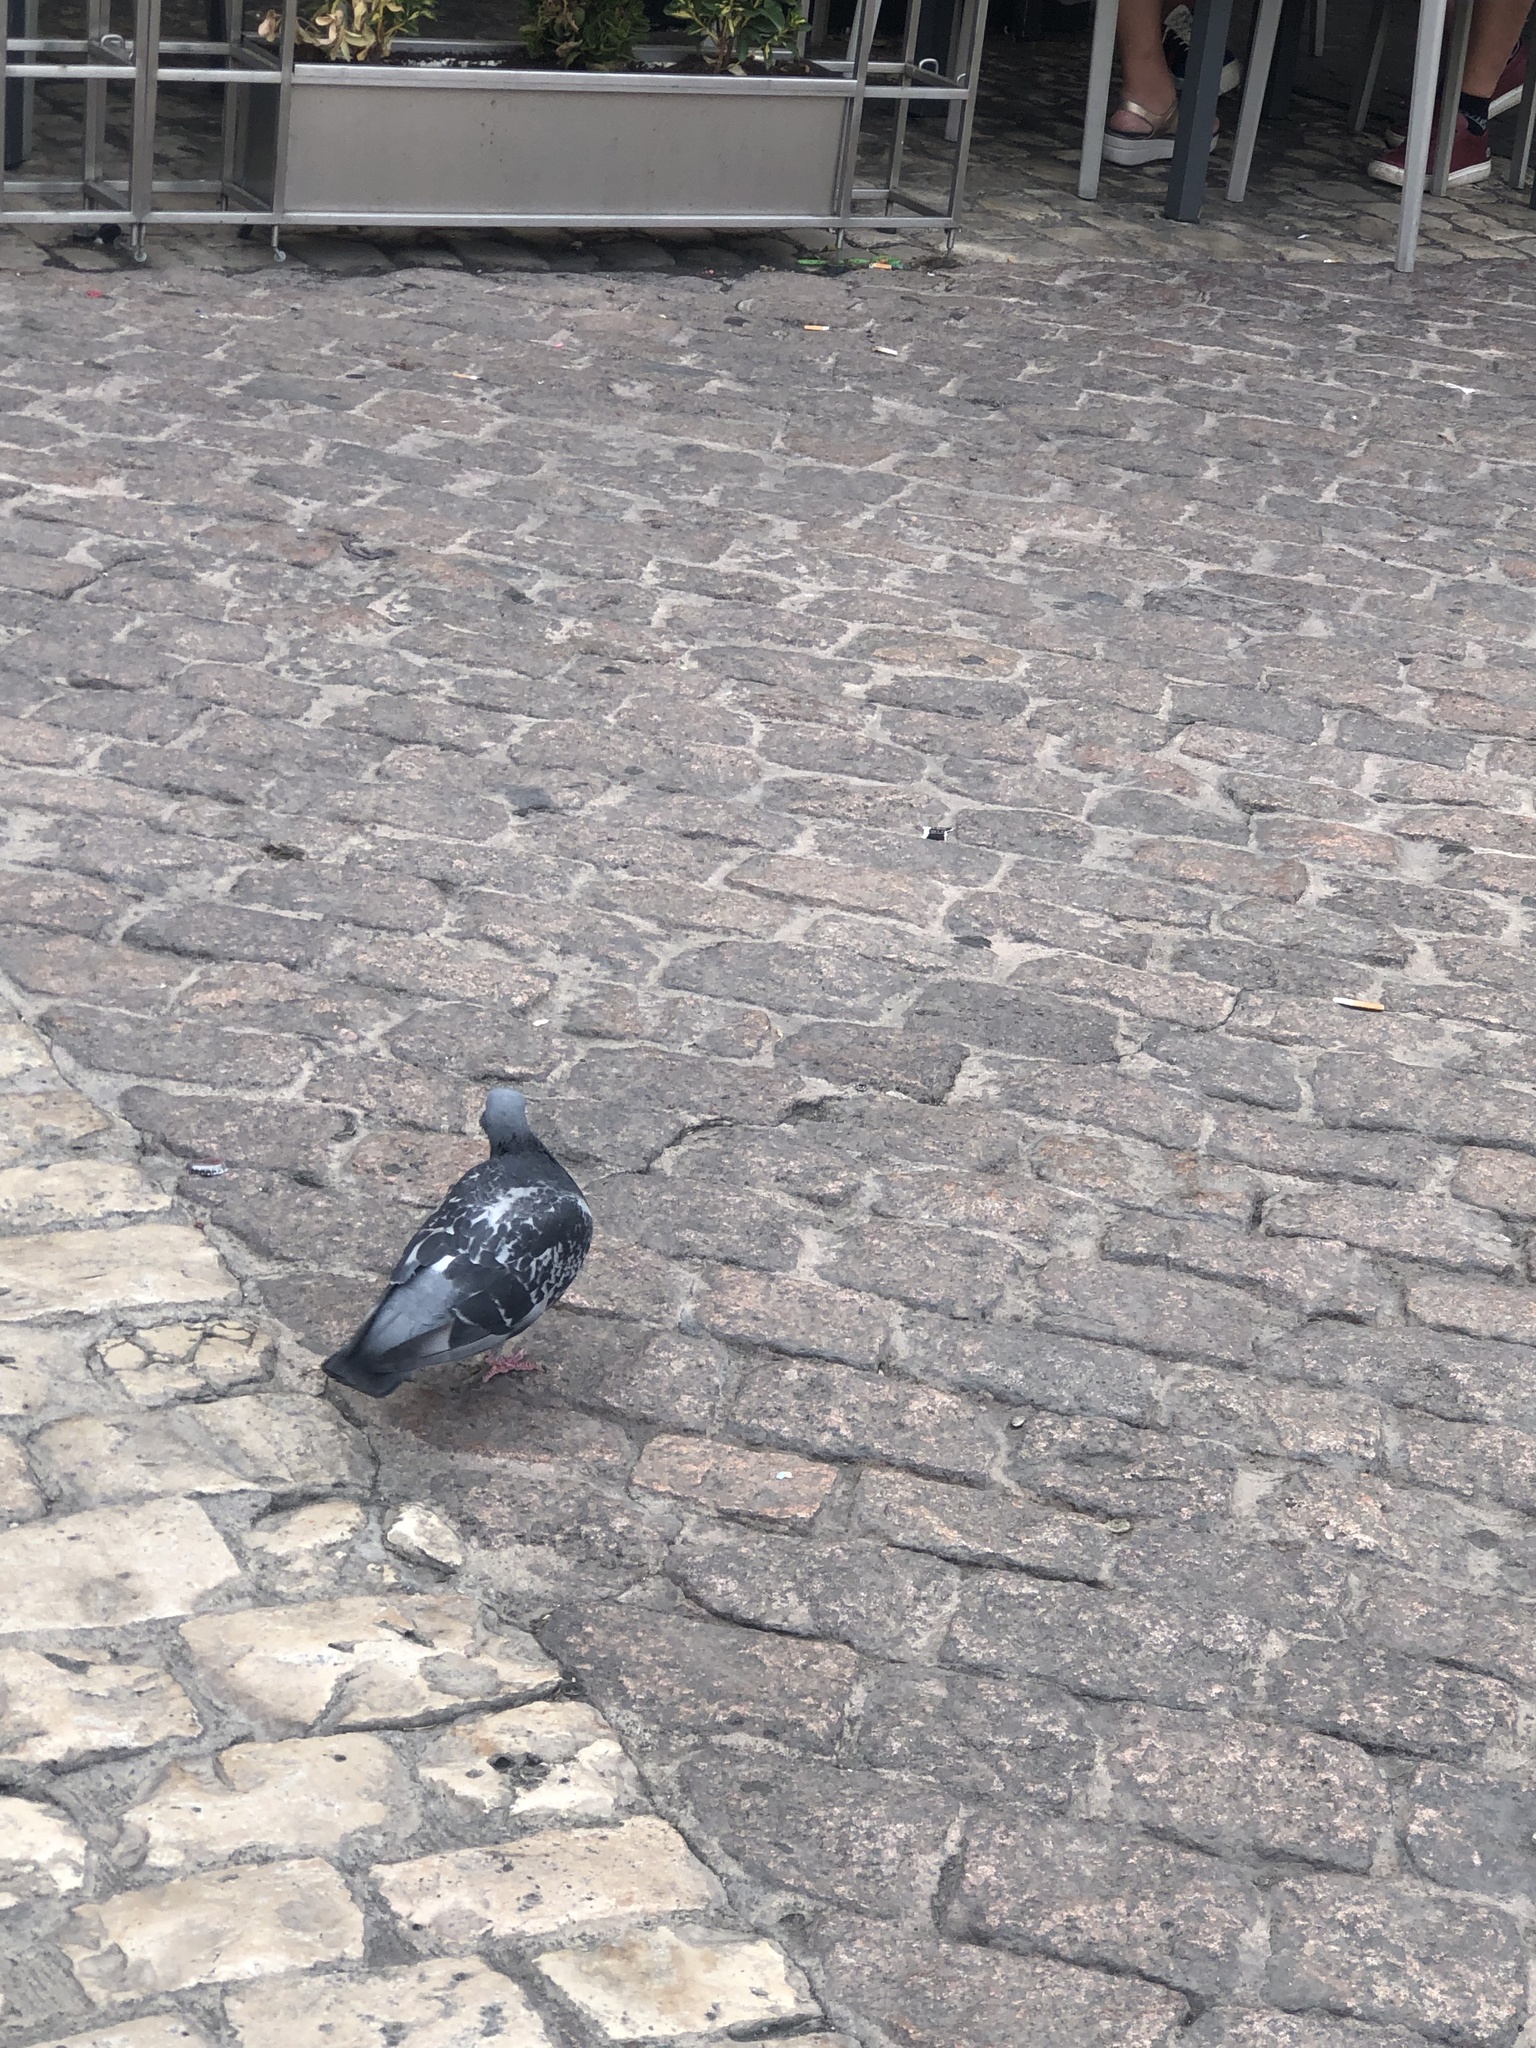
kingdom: Animalia
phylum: Chordata
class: Aves
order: Columbiformes
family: Columbidae
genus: Columba
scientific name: Columba livia
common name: Rock pigeon
